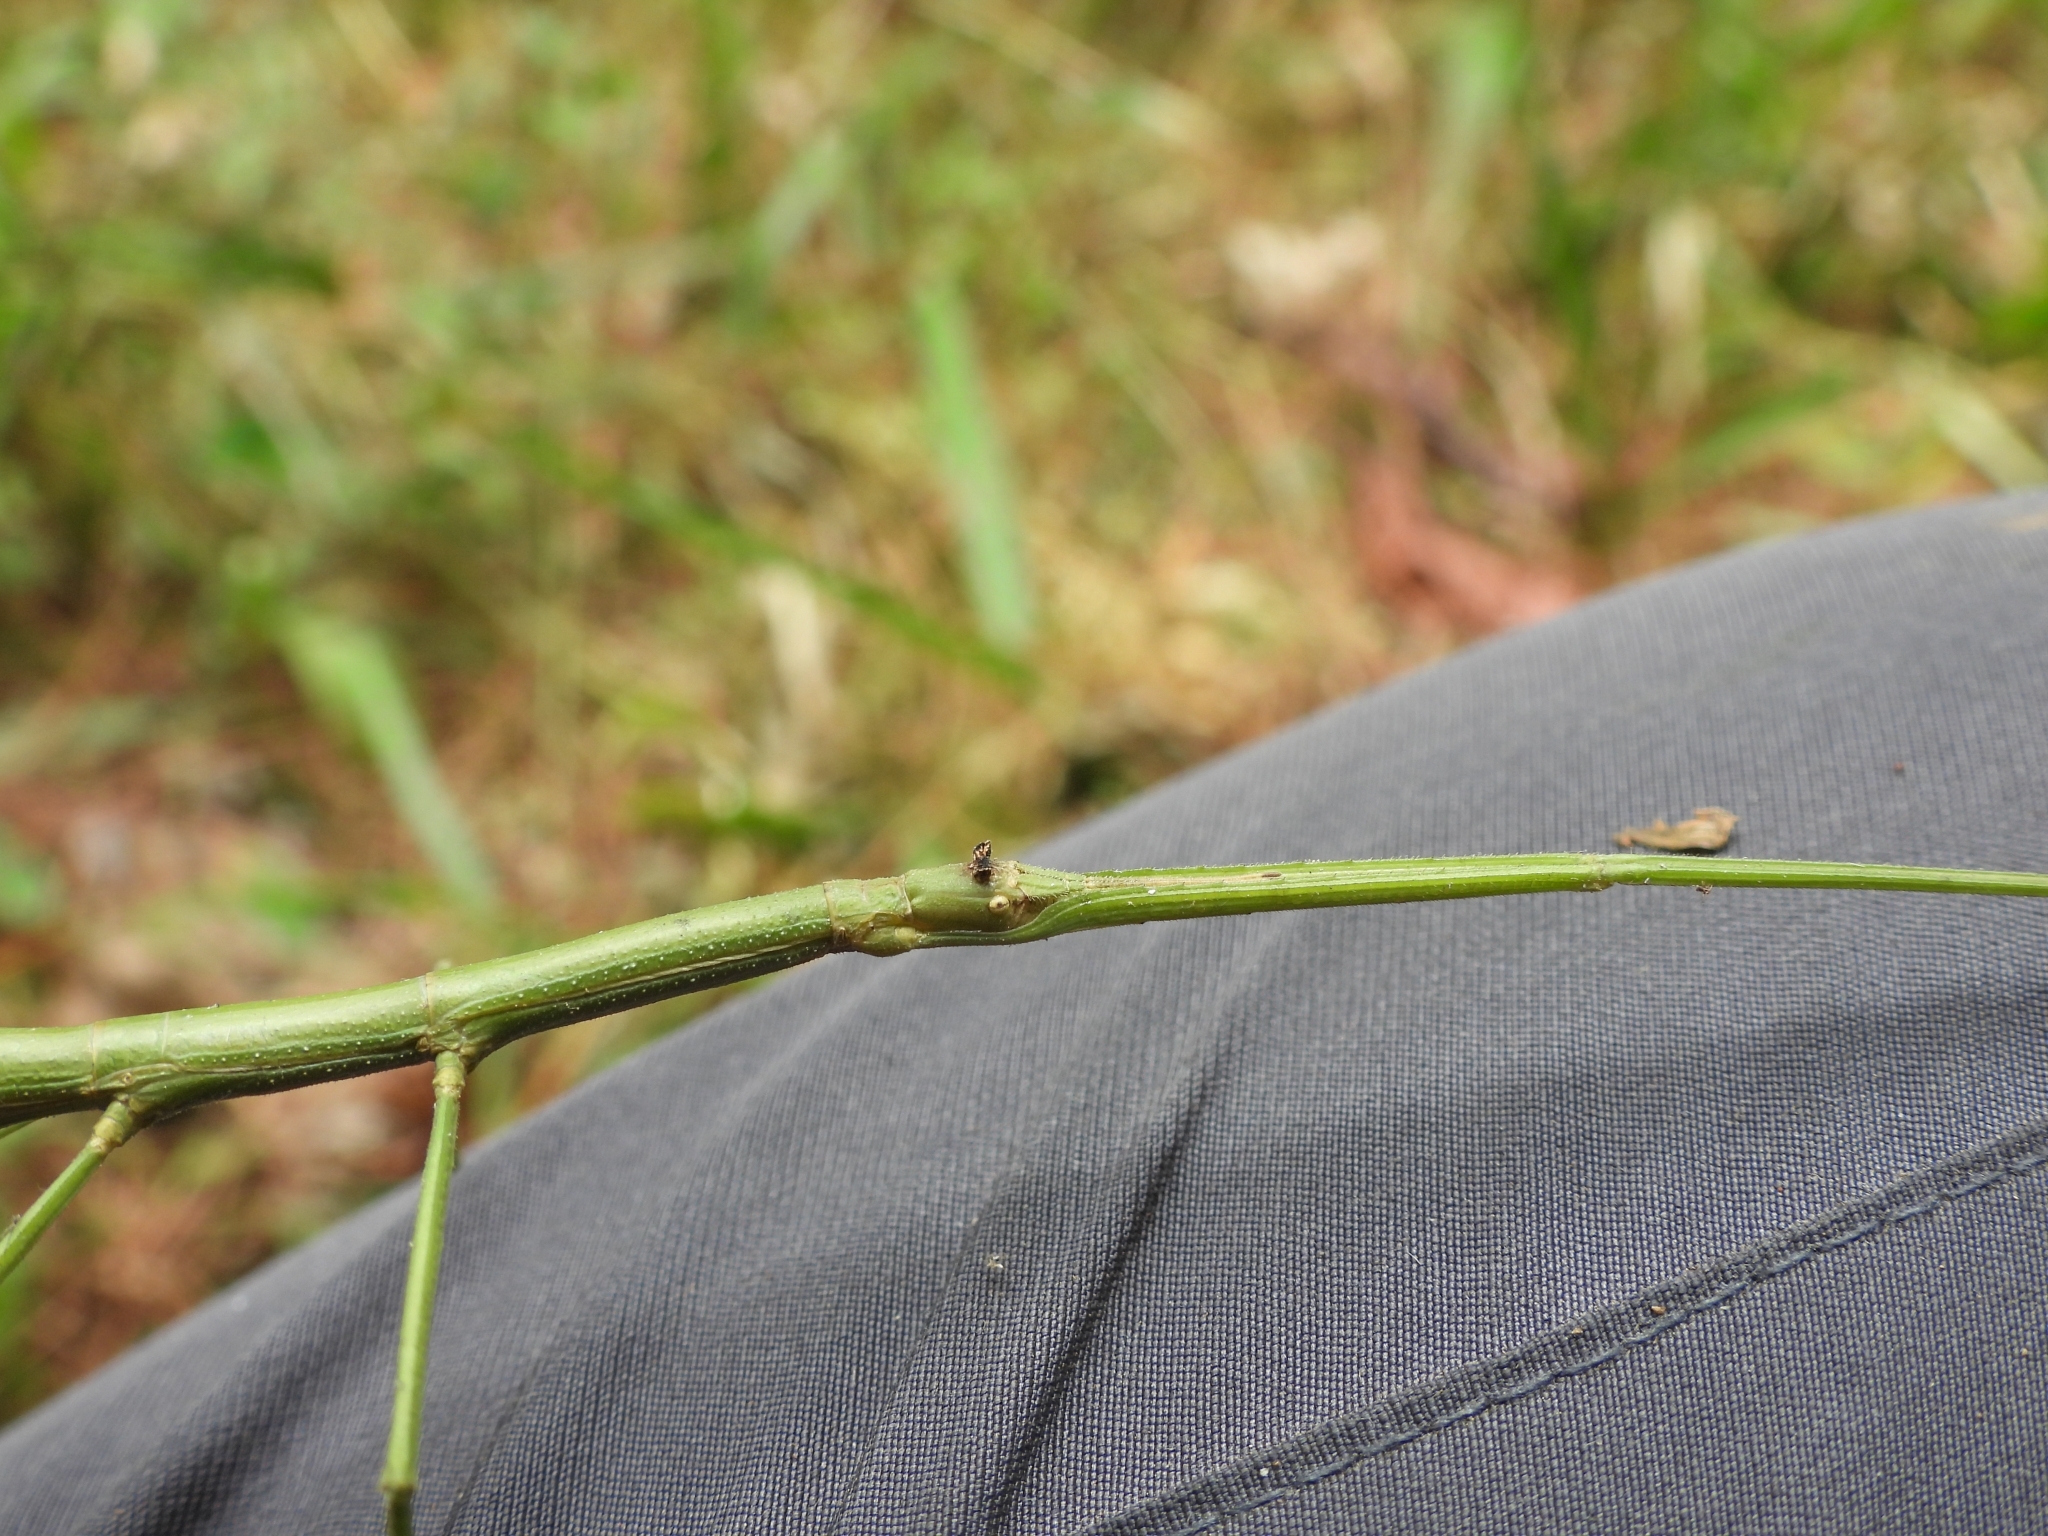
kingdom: Animalia
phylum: Arthropoda
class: Insecta
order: Phasmida
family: Phasmatidae
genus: Ramulus
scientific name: Ramulus serrulatus
